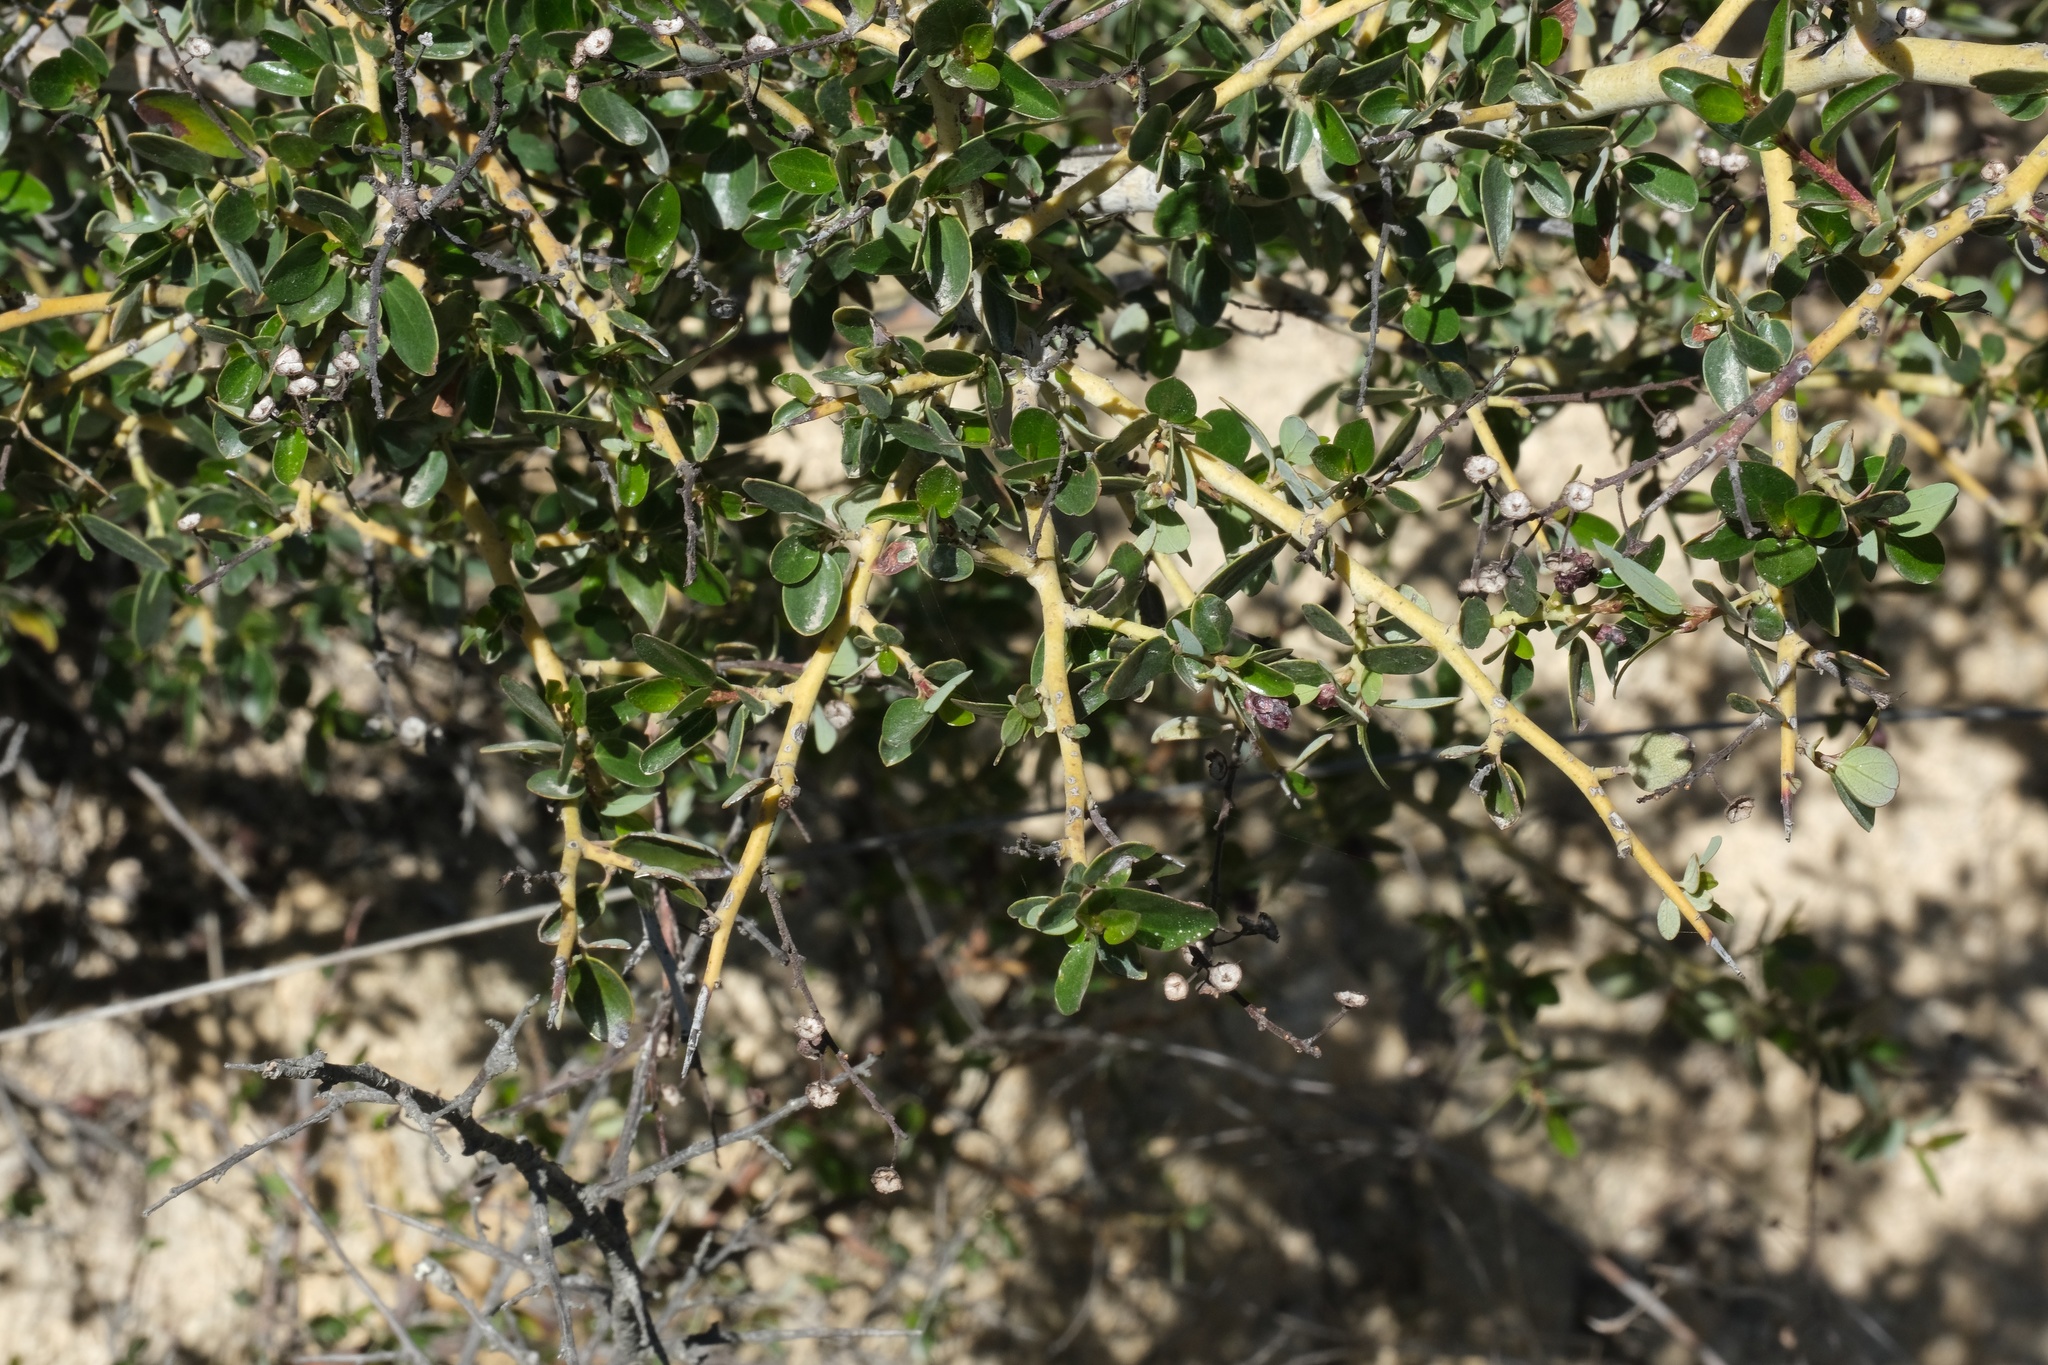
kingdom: Plantae
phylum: Tracheophyta
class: Magnoliopsida
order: Rosales
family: Rhamnaceae
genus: Ceanothus
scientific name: Ceanothus pendletonensis
